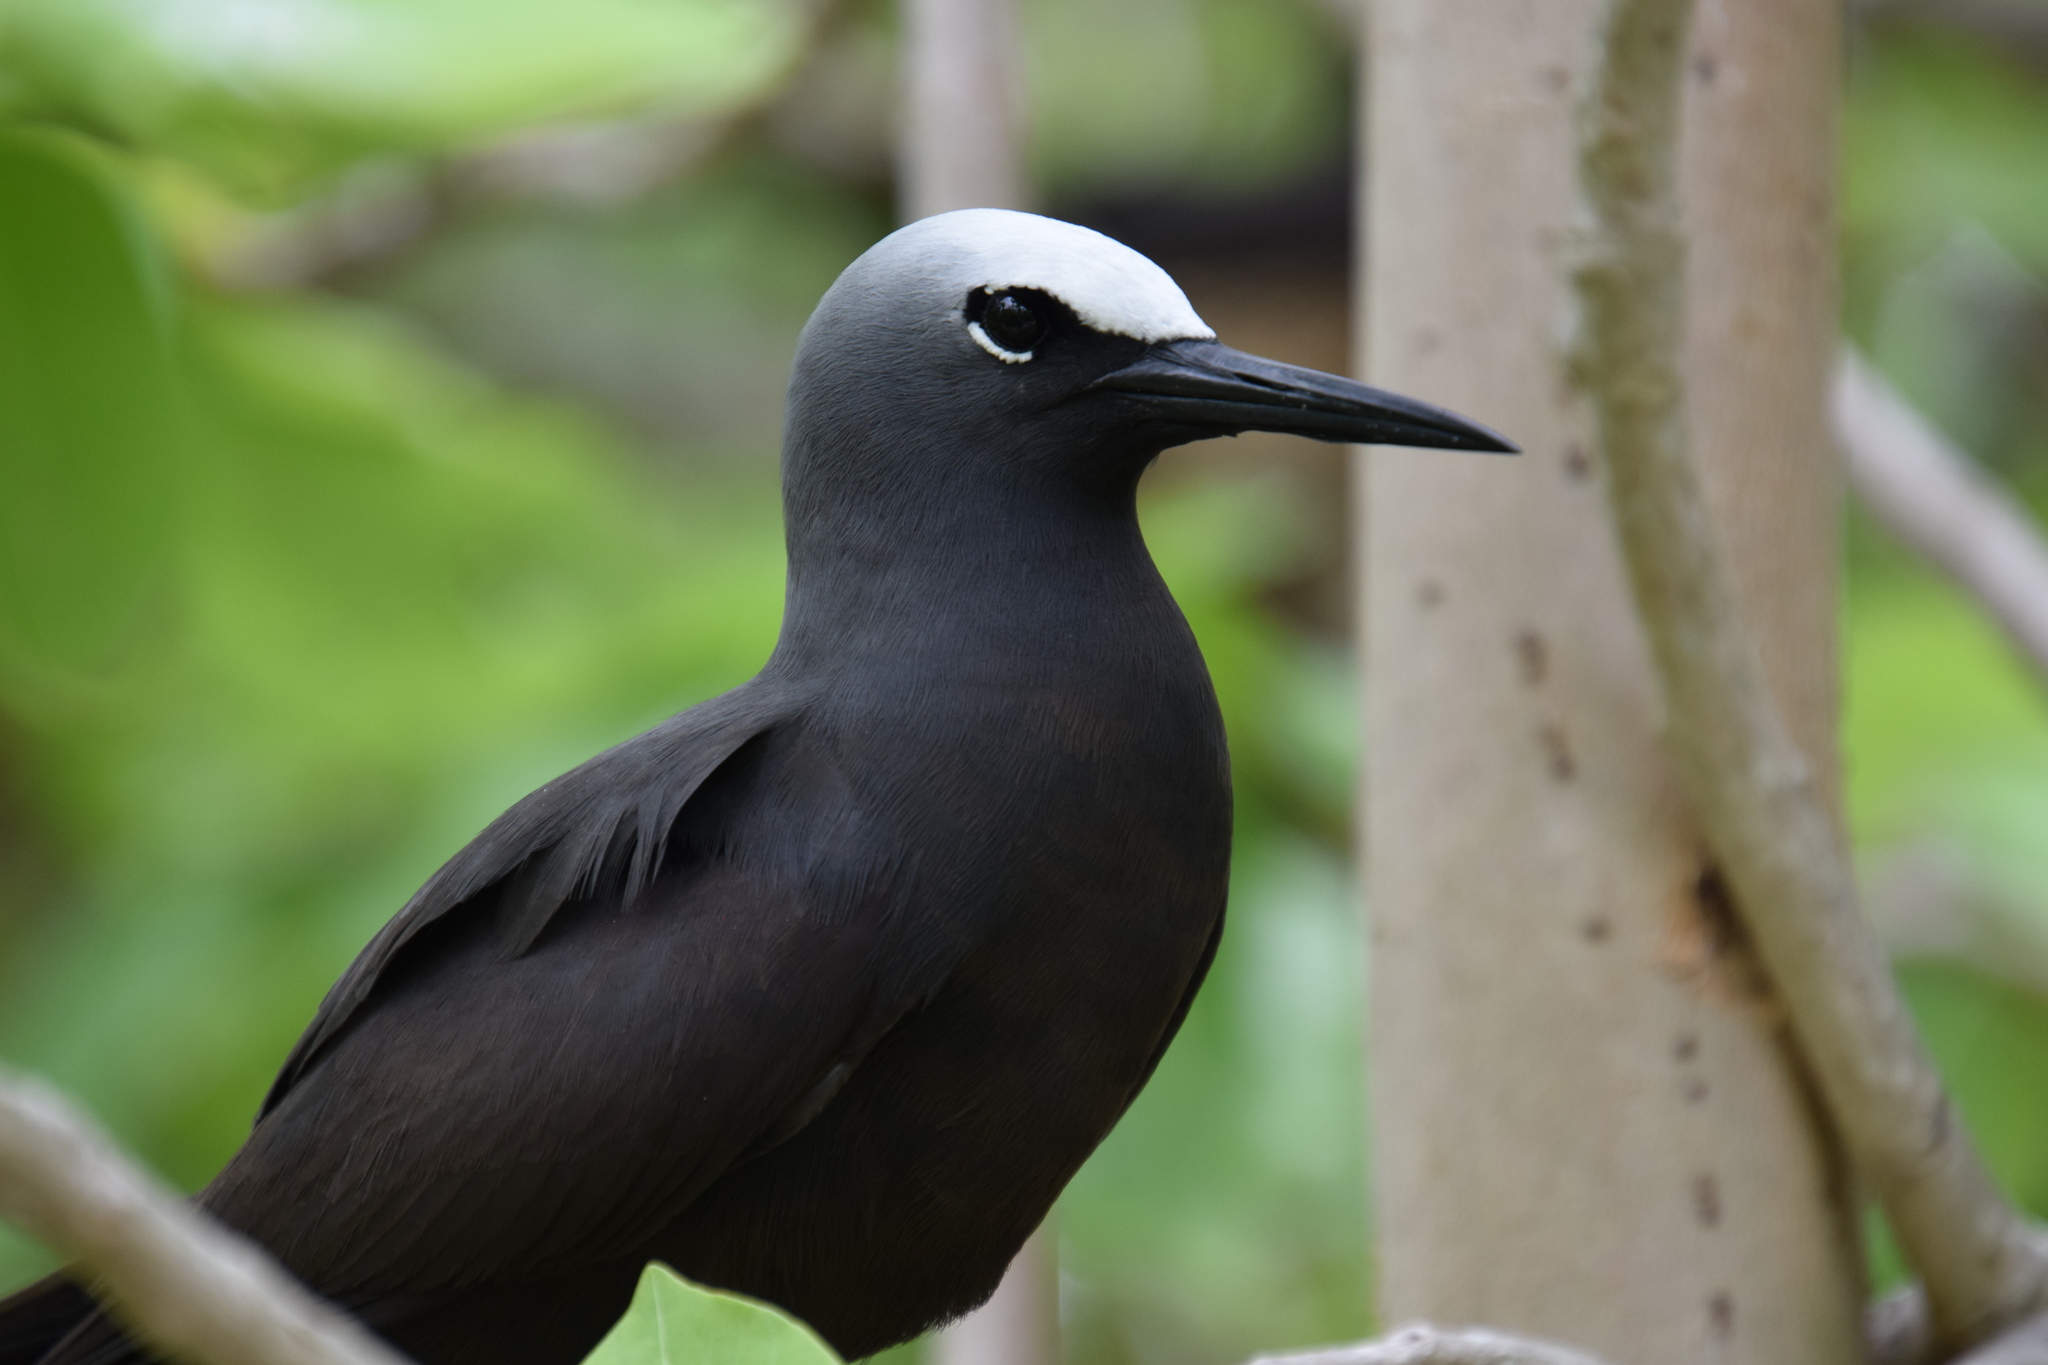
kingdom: Animalia
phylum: Chordata
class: Aves
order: Charadriiformes
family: Laridae
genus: Anous
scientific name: Anous minutus
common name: Black noddy
